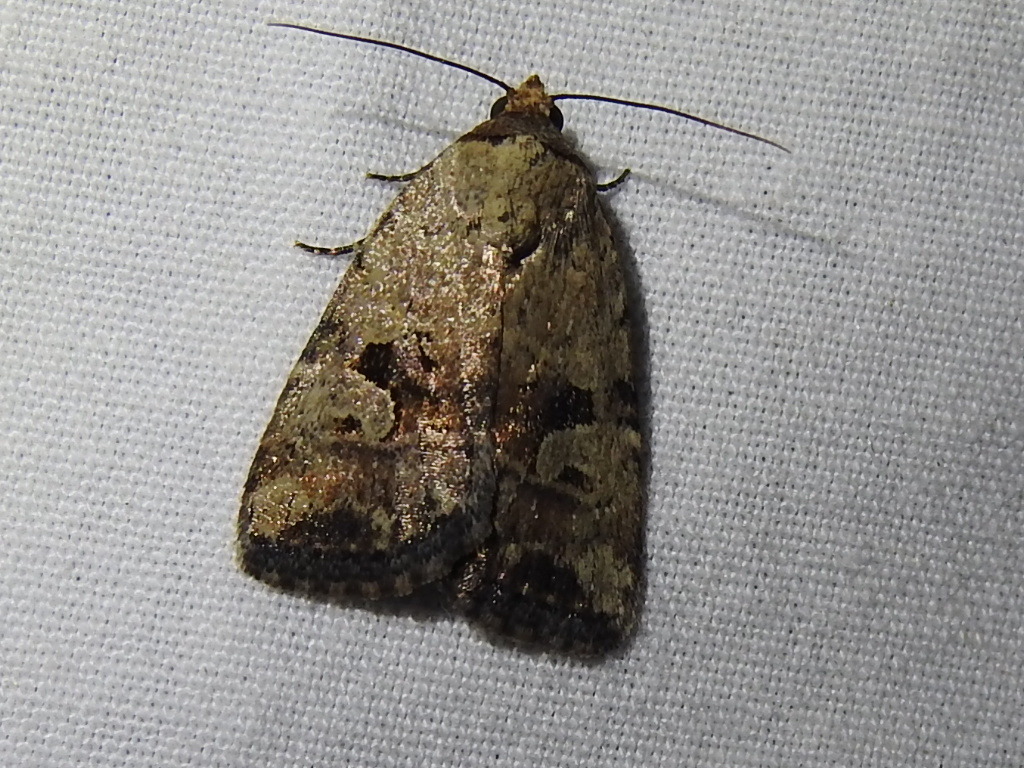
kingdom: Animalia
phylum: Arthropoda
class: Insecta
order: Lepidoptera
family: Noctuidae
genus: Elaphria
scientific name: Elaphria festivoides
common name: Festive midget
